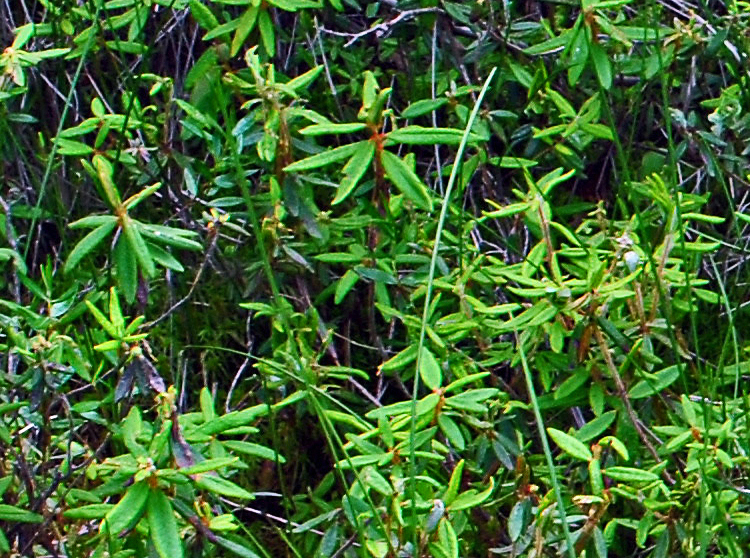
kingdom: Plantae
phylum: Tracheophyta
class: Magnoliopsida
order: Ericales
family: Ericaceae
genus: Rhododendron
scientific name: Rhododendron groenlandicum
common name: Bog labrador tea
